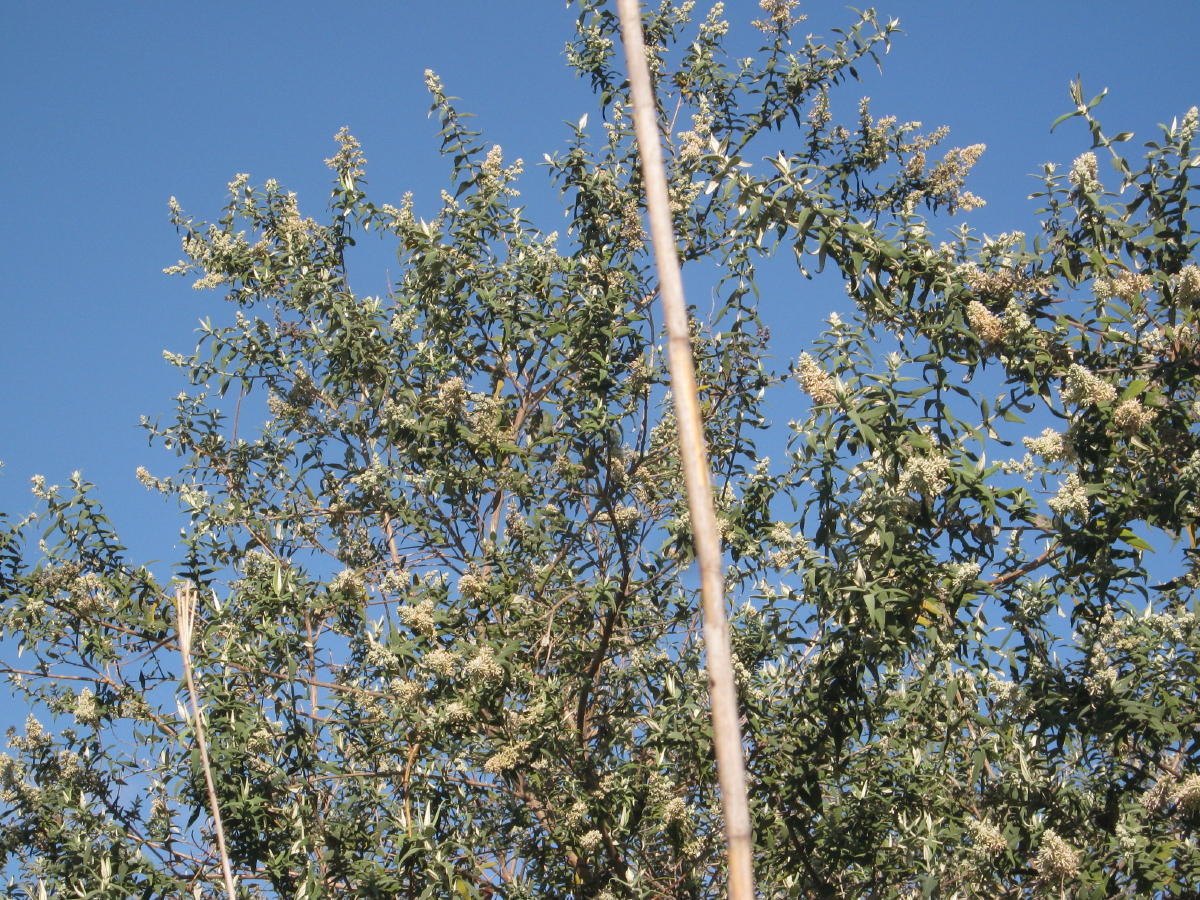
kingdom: Plantae
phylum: Tracheophyta
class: Magnoliopsida
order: Lamiales
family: Scrophulariaceae
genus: Buddleja
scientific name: Buddleja salviifolia
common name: Sagewood
